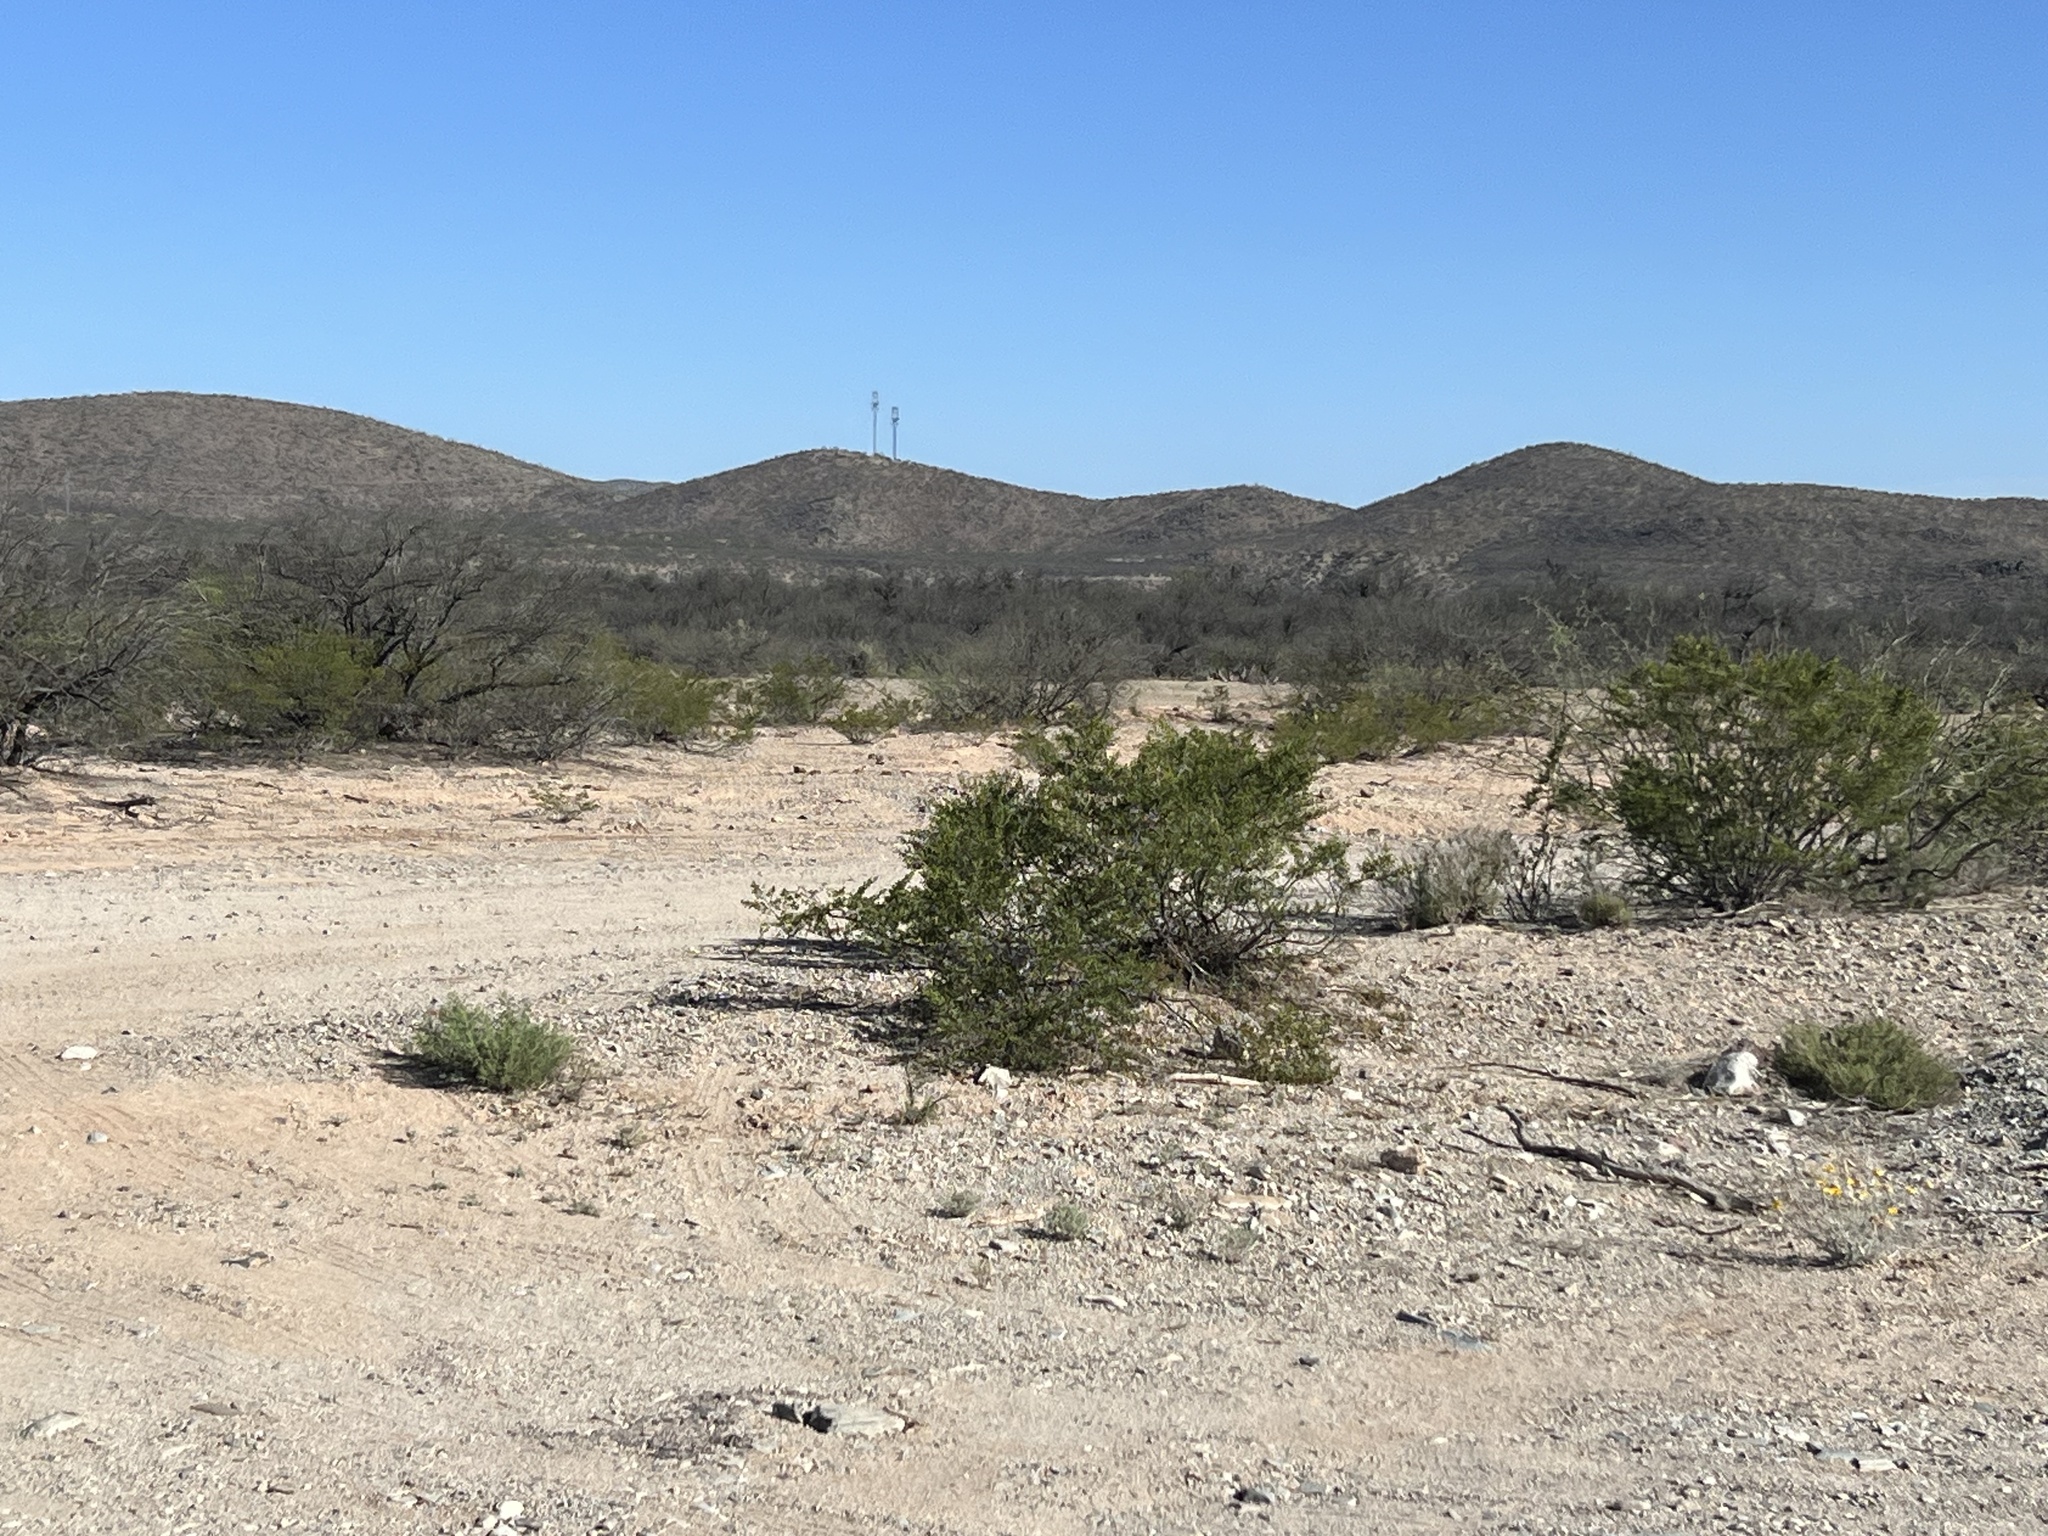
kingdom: Plantae
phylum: Tracheophyta
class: Magnoliopsida
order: Zygophyllales
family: Zygophyllaceae
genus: Larrea
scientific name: Larrea tridentata
